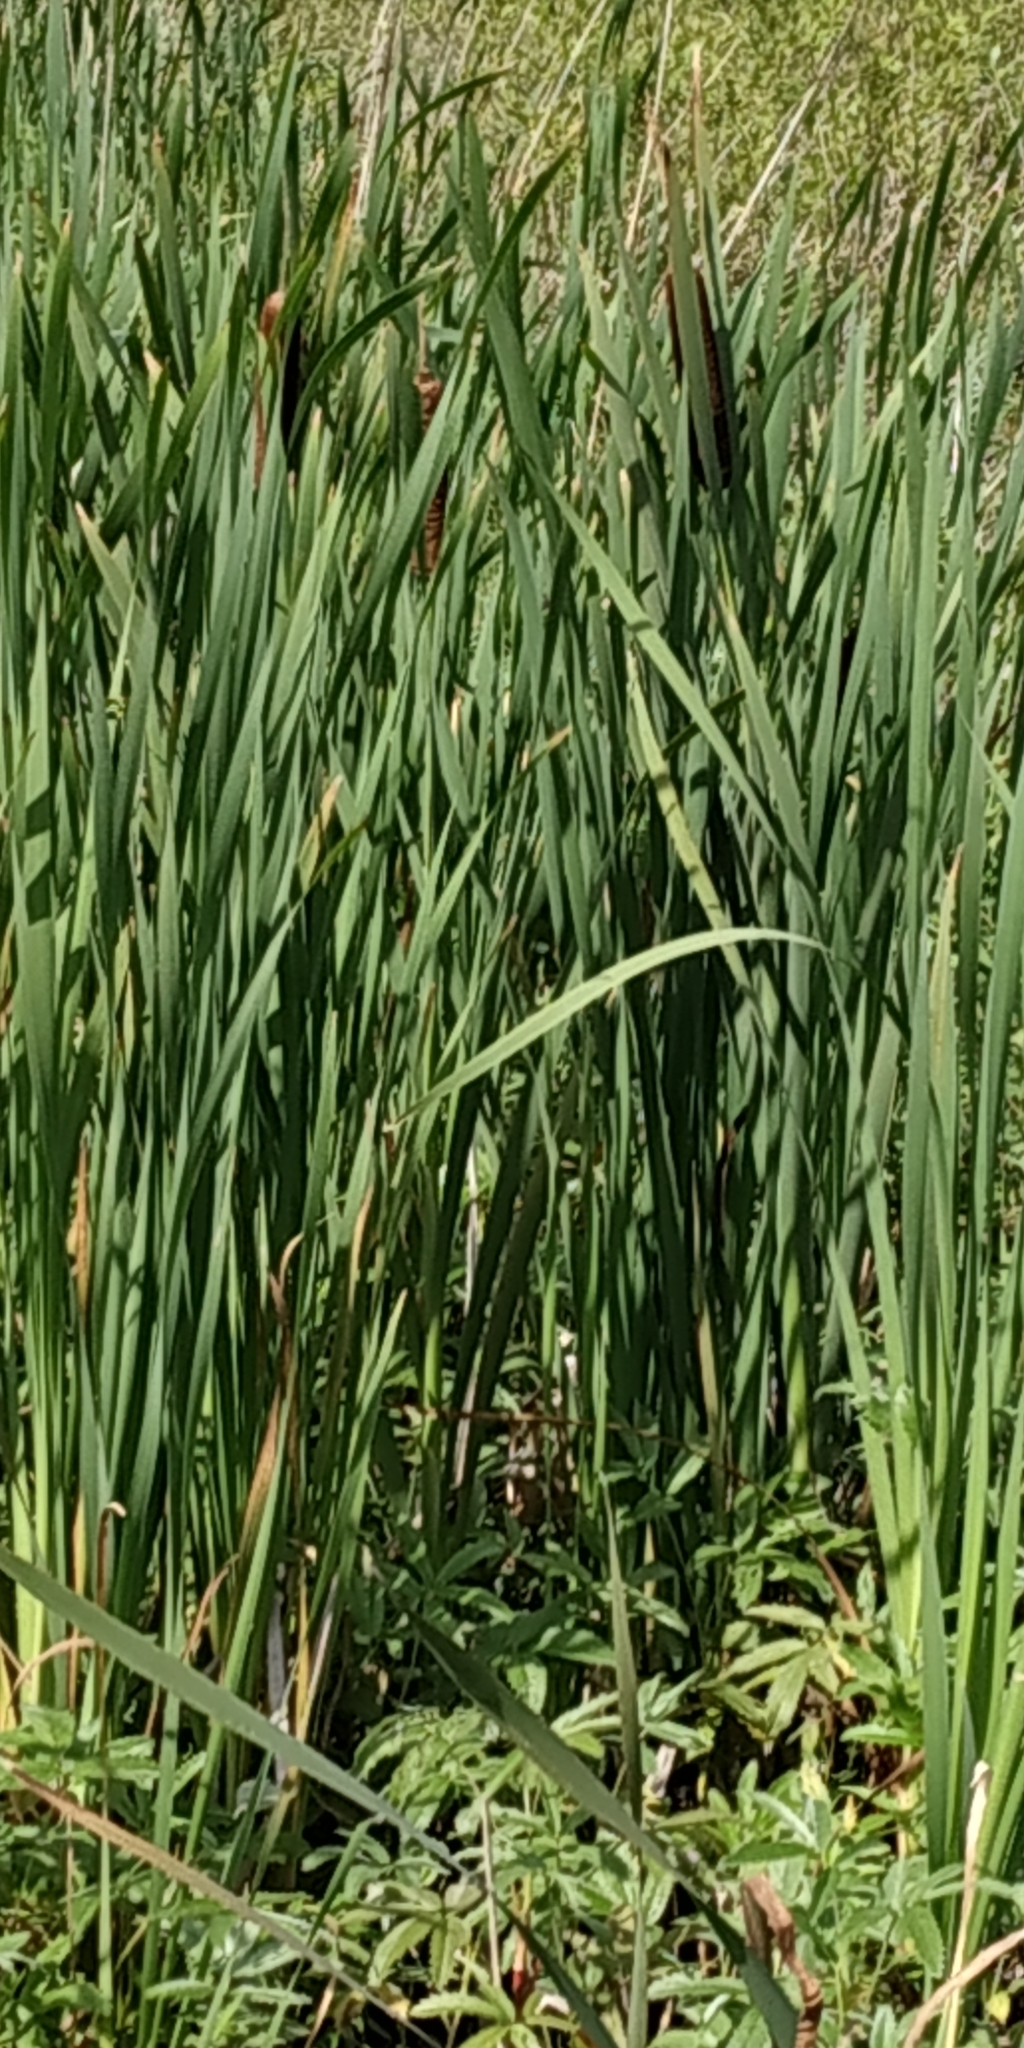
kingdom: Plantae
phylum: Tracheophyta
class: Liliopsida
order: Poales
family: Typhaceae
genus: Typha
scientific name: Typha latifolia
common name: Broadleaf cattail
